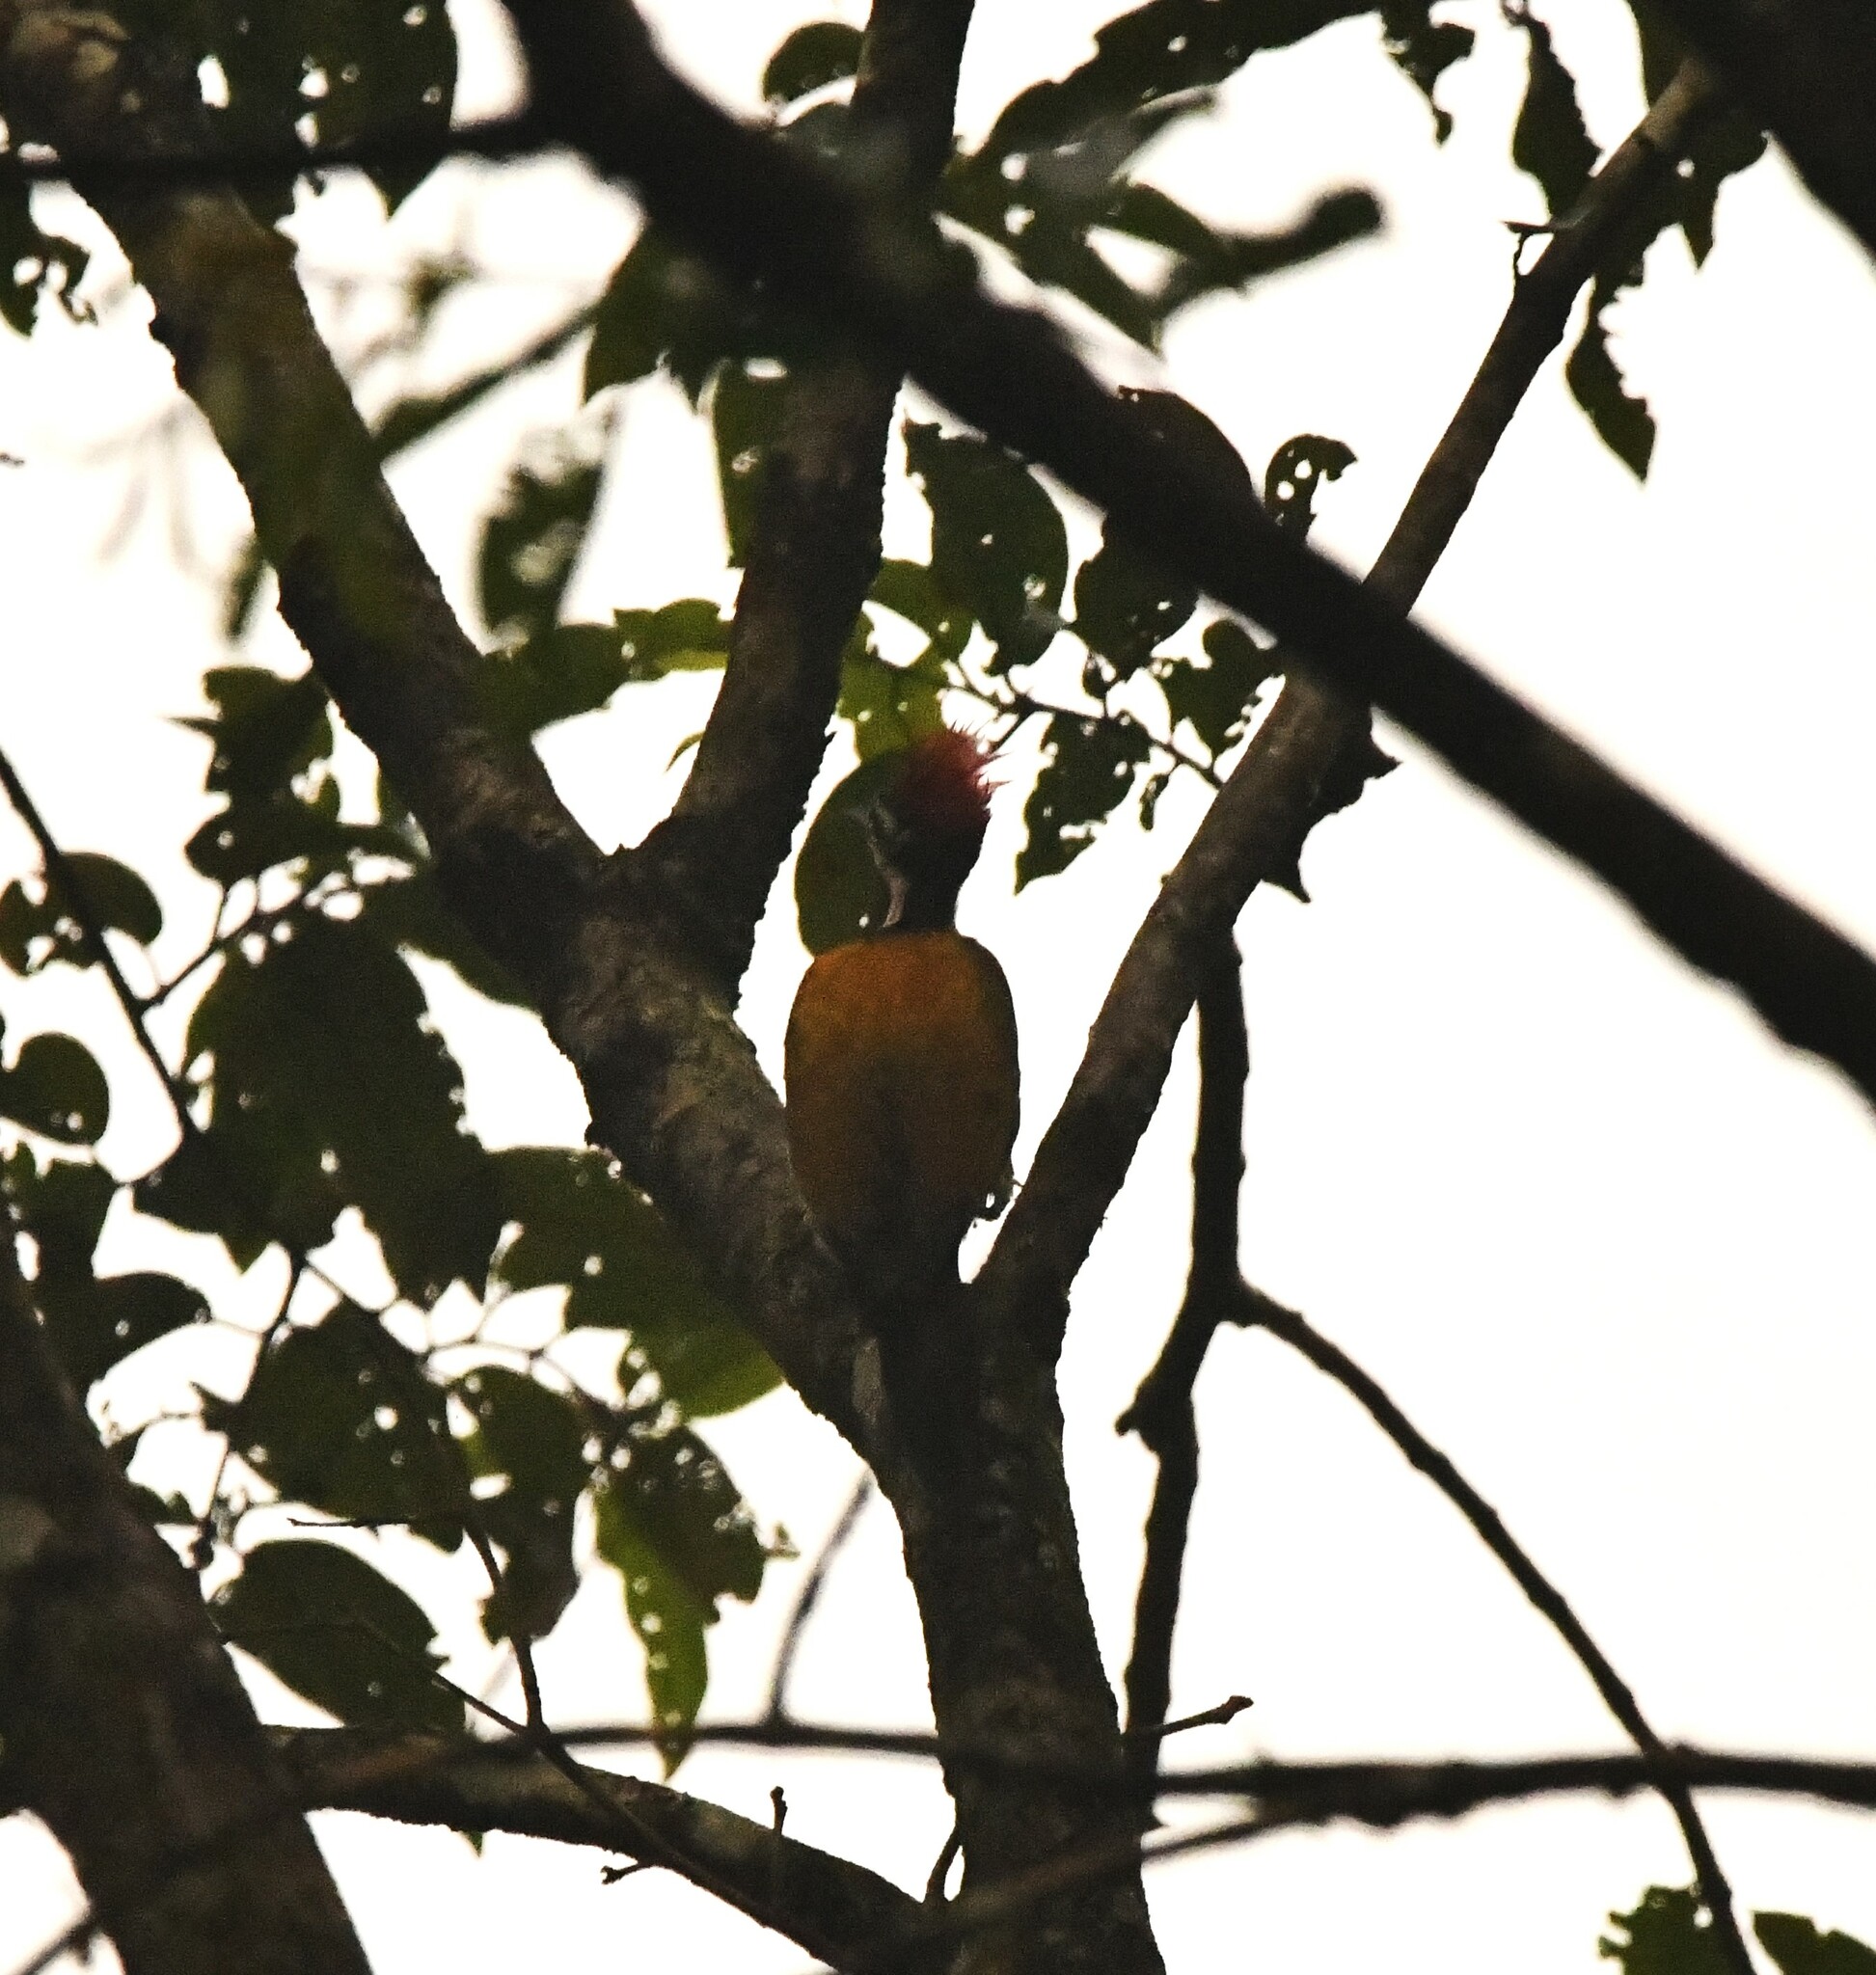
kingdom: Animalia
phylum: Chordata
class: Aves
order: Piciformes
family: Picidae
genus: Dinopium
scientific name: Dinopium benghalense
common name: Black-rumped flameback
